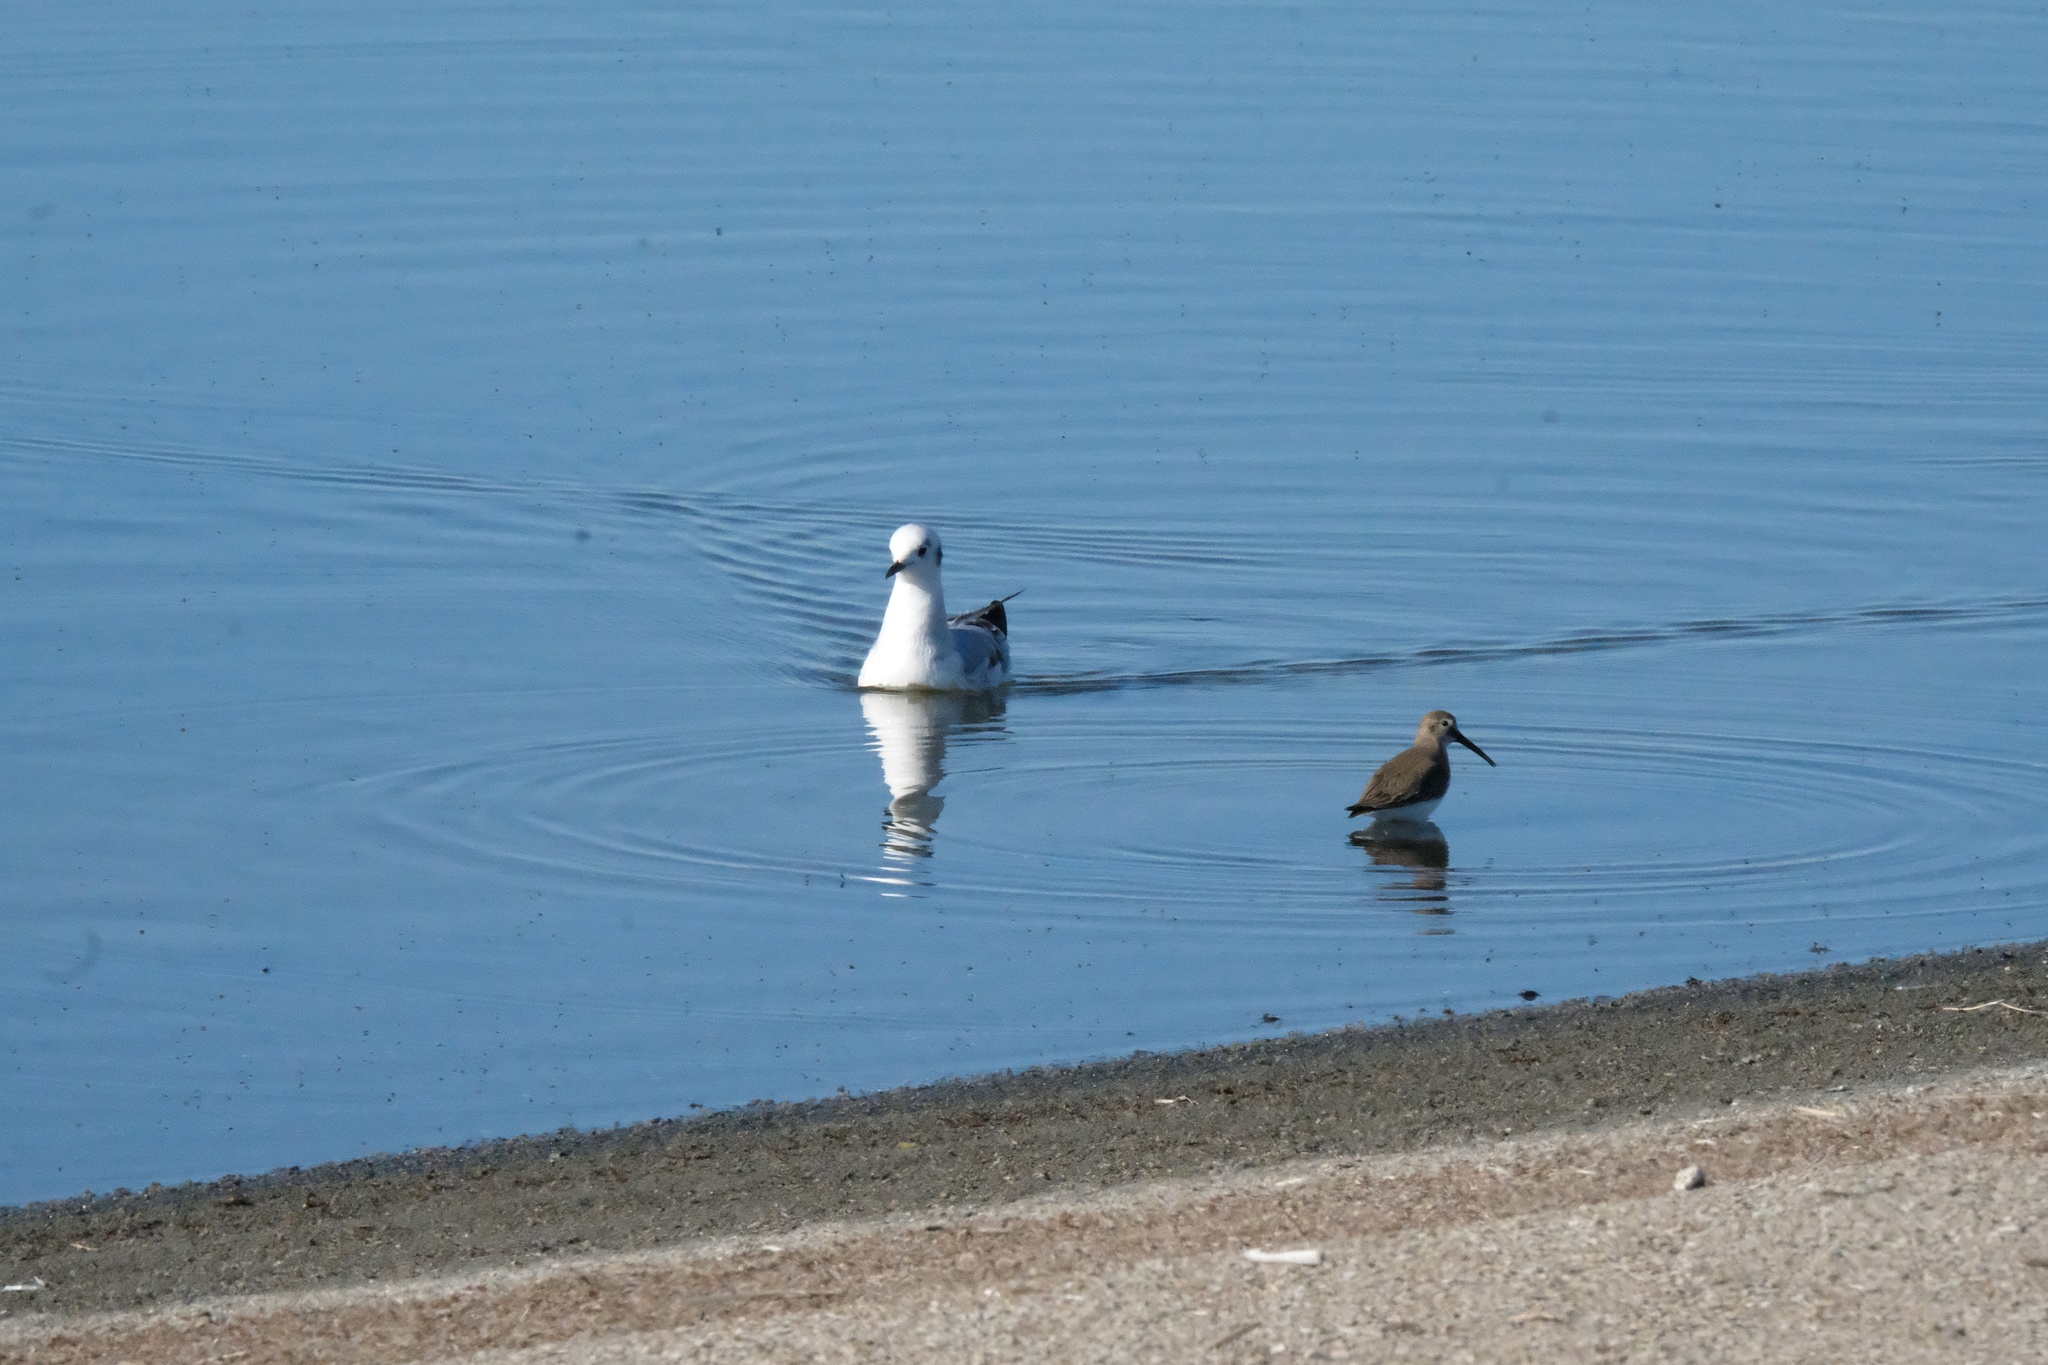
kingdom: Animalia
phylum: Chordata
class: Aves
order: Charadriiformes
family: Scolopacidae
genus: Calidris
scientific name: Calidris alpina
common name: Dunlin
